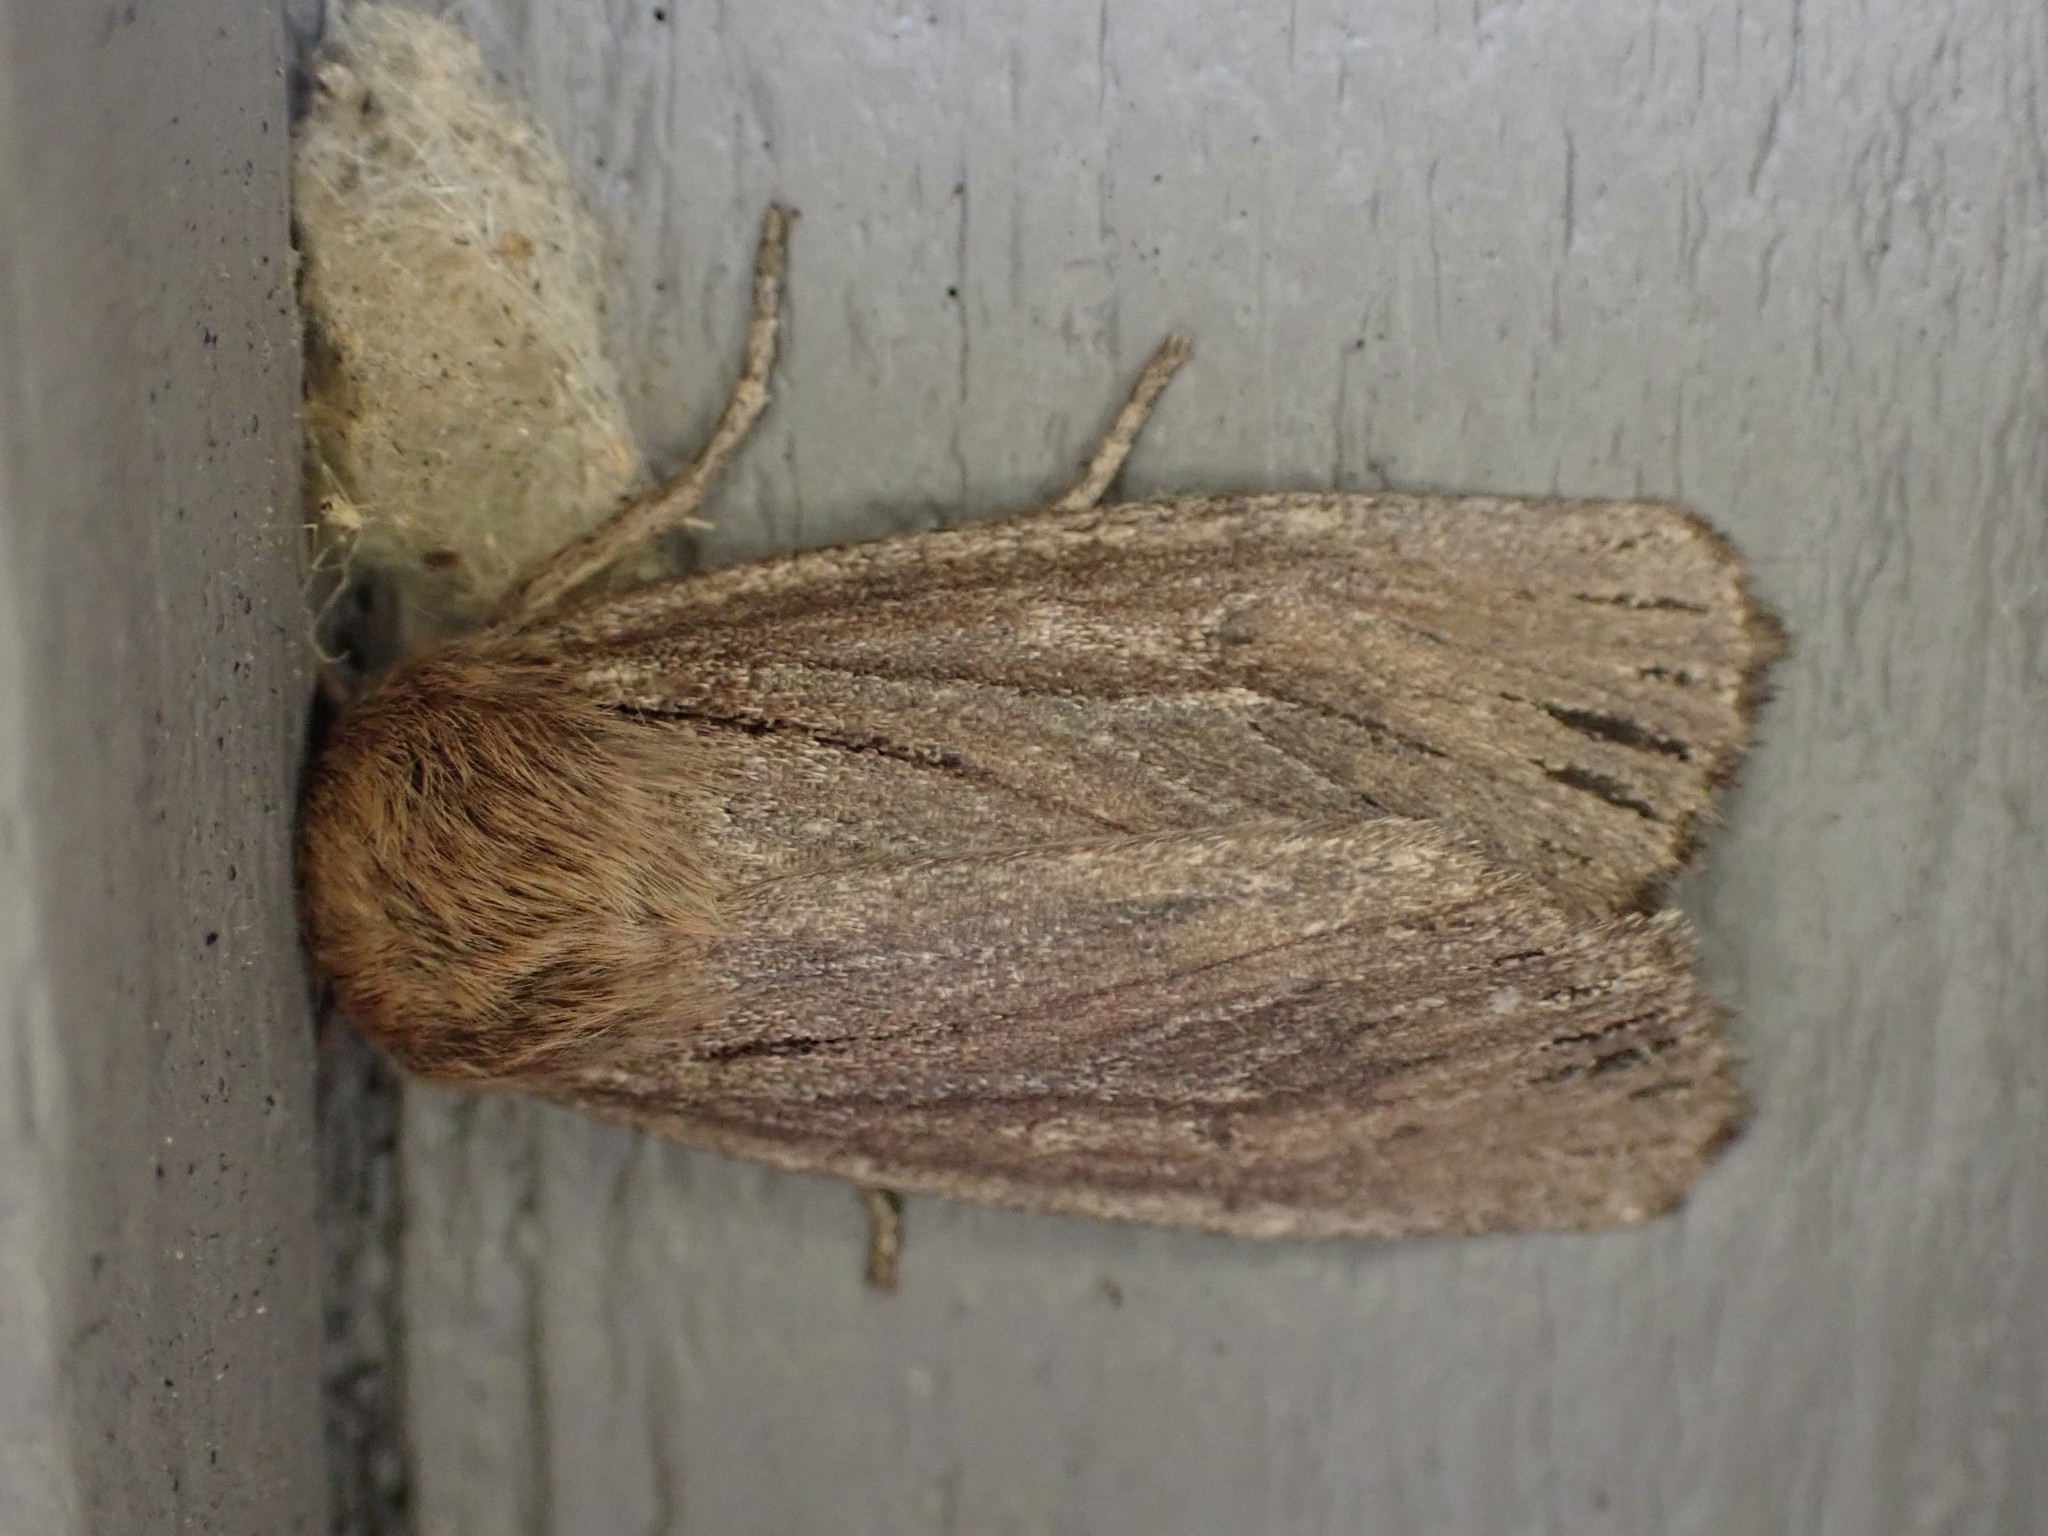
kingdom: Animalia
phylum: Arthropoda
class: Insecta
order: Lepidoptera
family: Noctuidae
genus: Ufeus
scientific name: Ufeus satyricus
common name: Brown satyr moth
